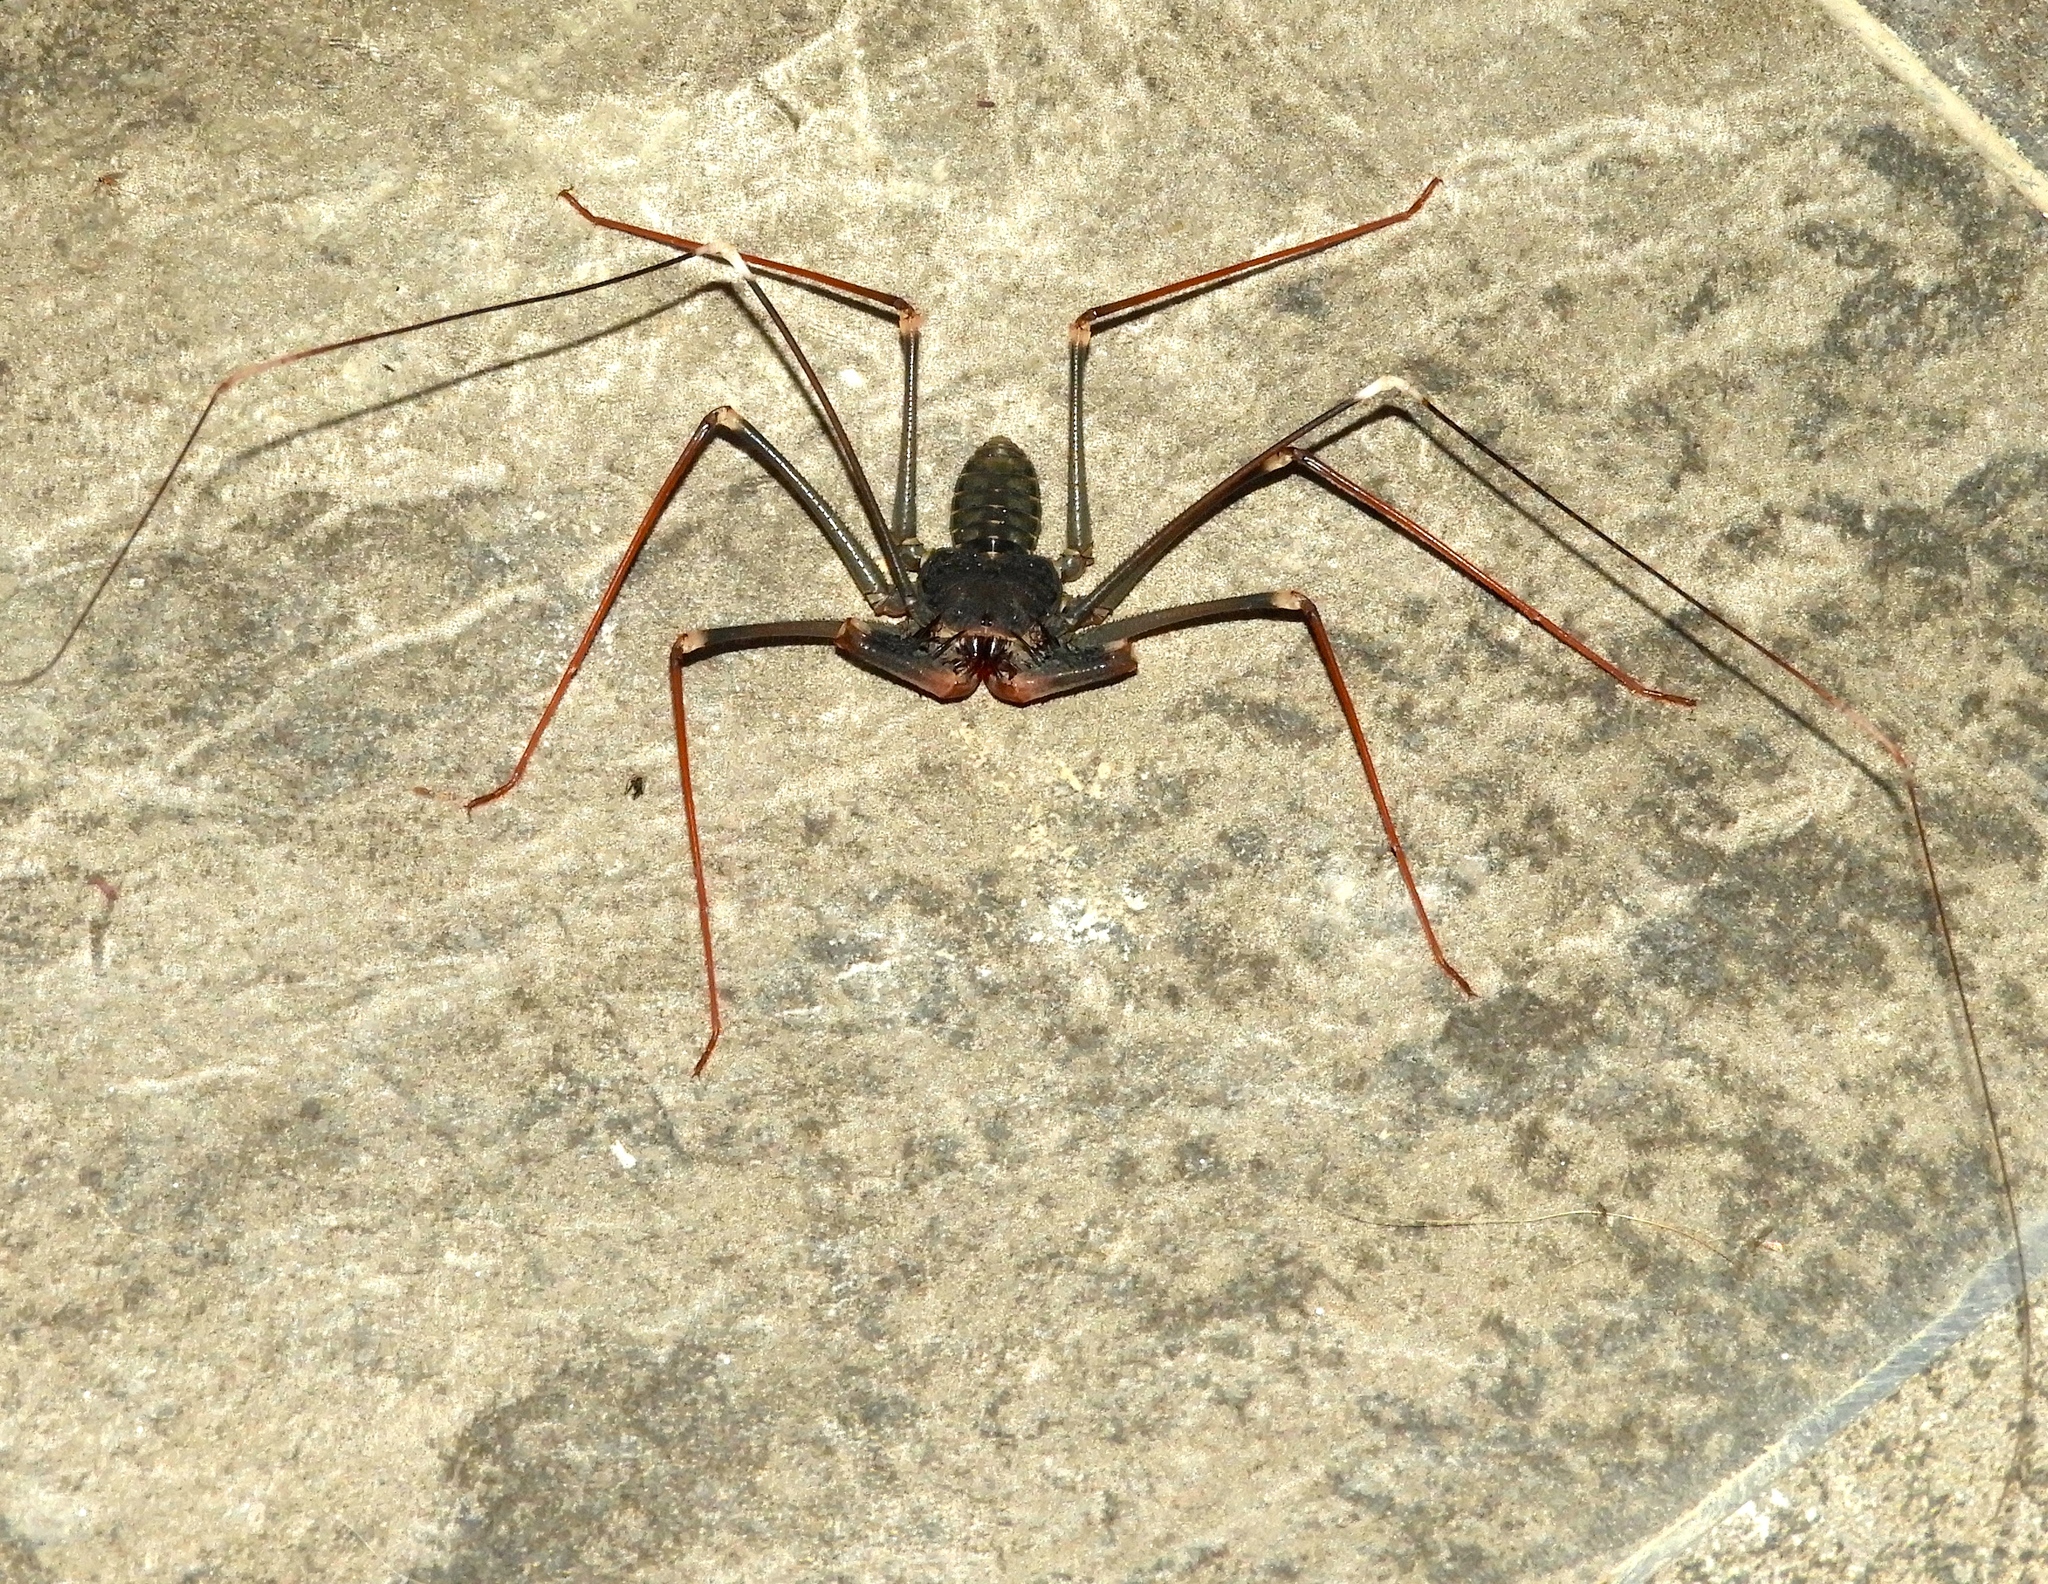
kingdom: Animalia
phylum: Arthropoda
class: Arachnida
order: Amblypygi
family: Phrynidae
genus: Acanthophrynus
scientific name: Acanthophrynus coronatus
